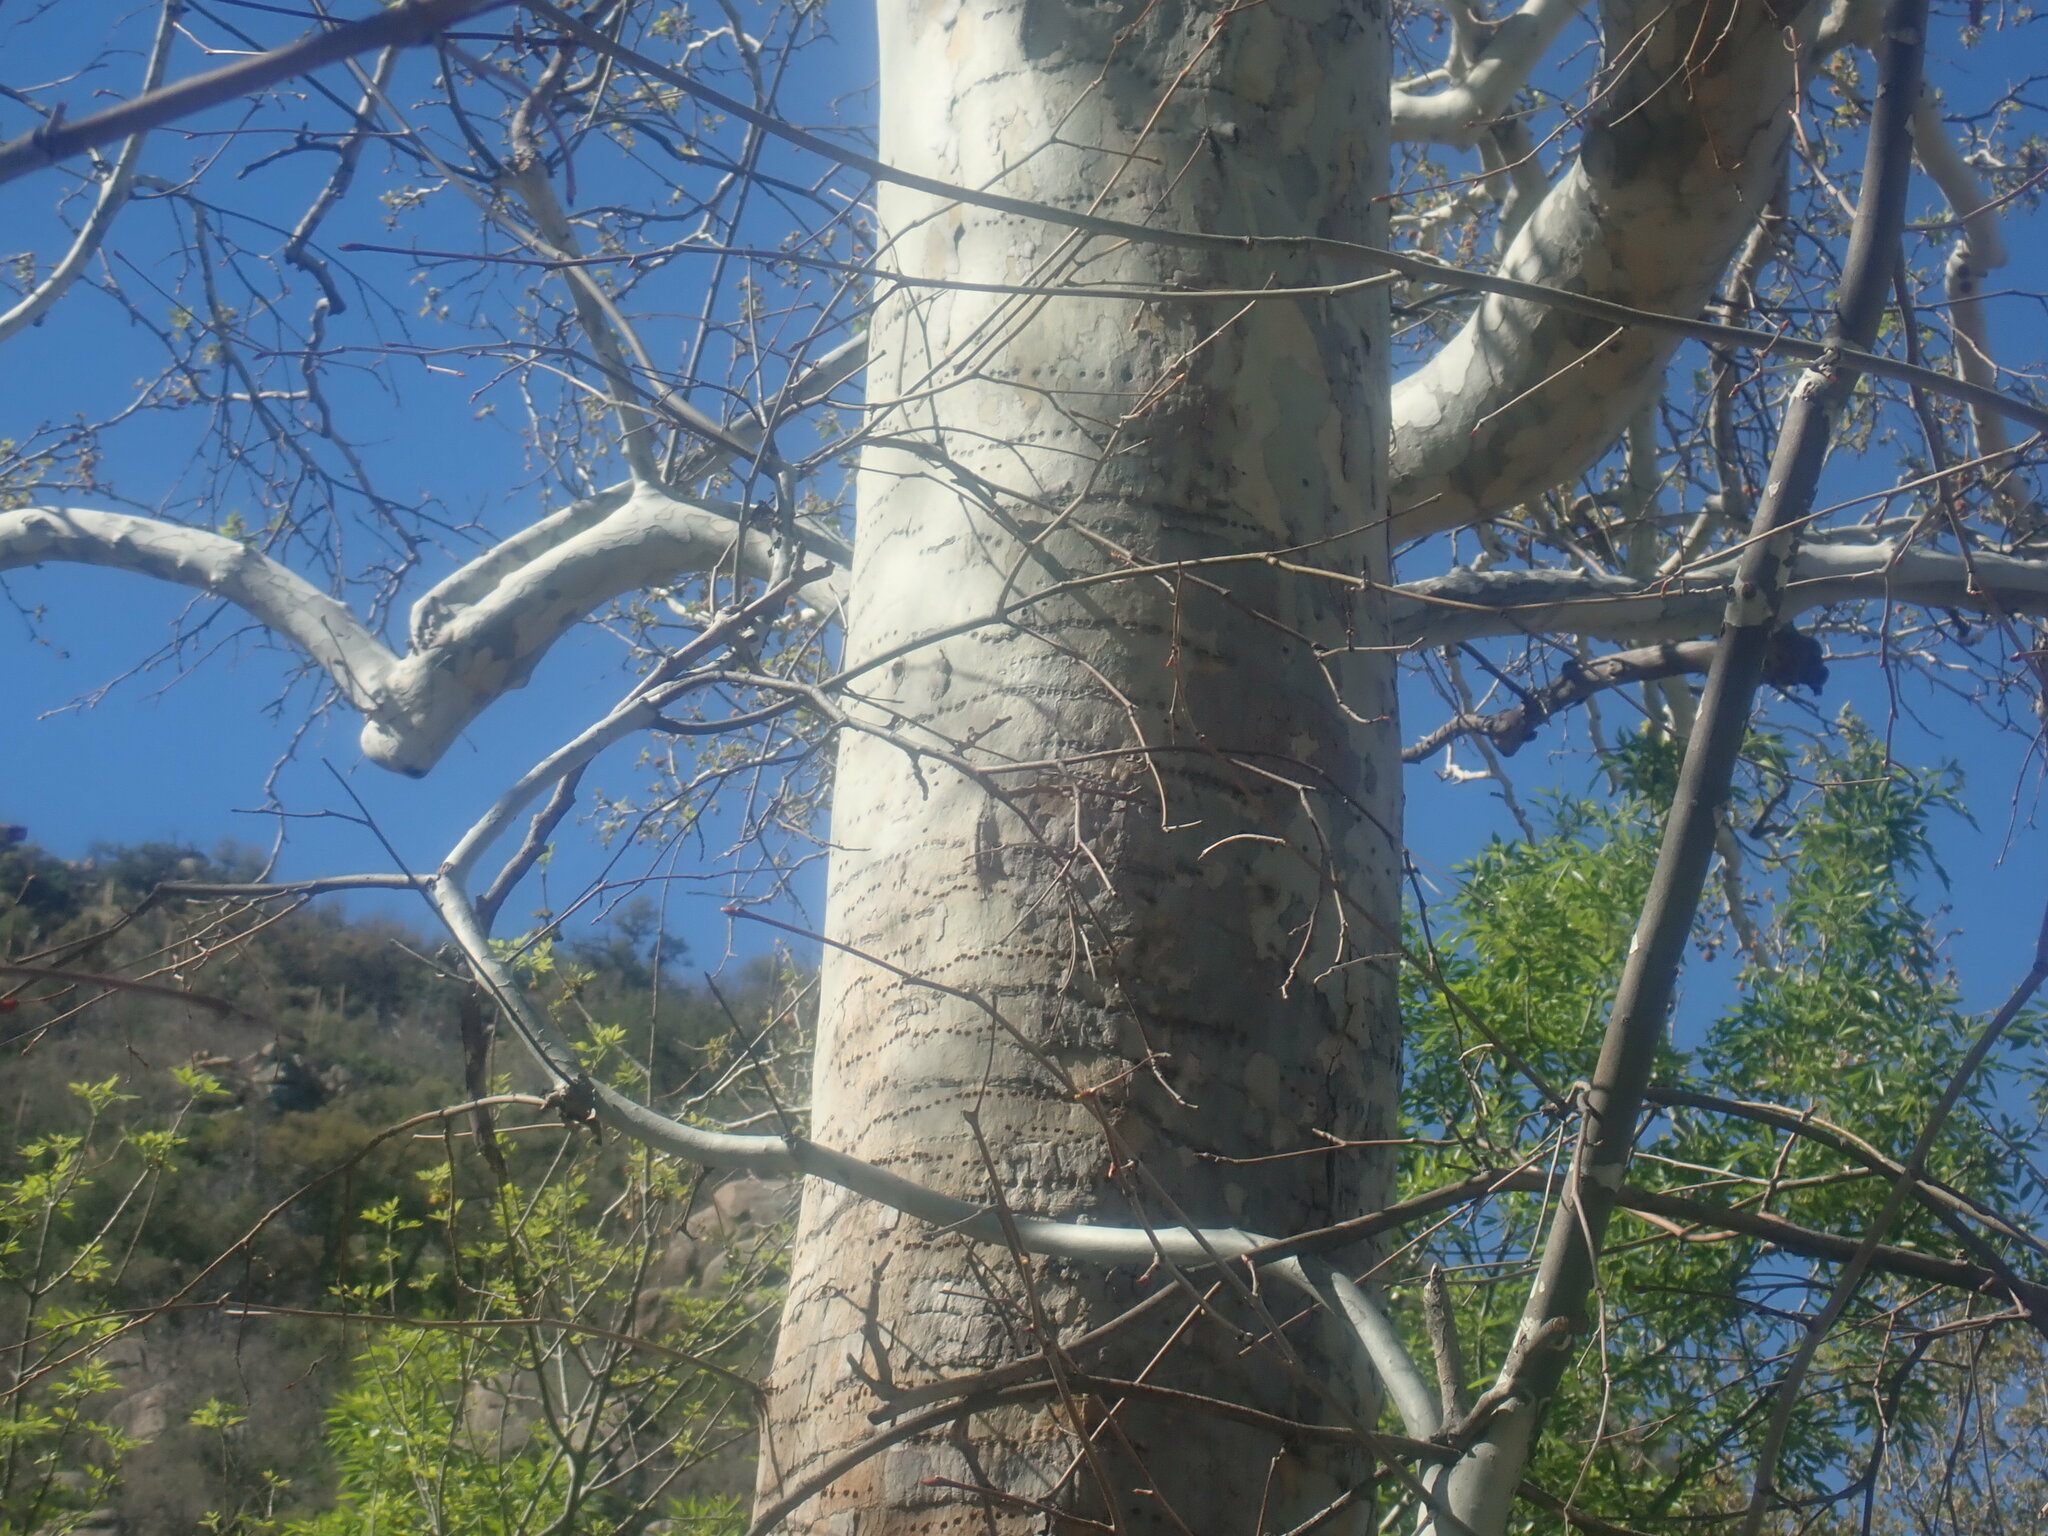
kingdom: Animalia
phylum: Chordata
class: Aves
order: Piciformes
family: Picidae
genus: Sphyrapicus
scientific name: Sphyrapicus
